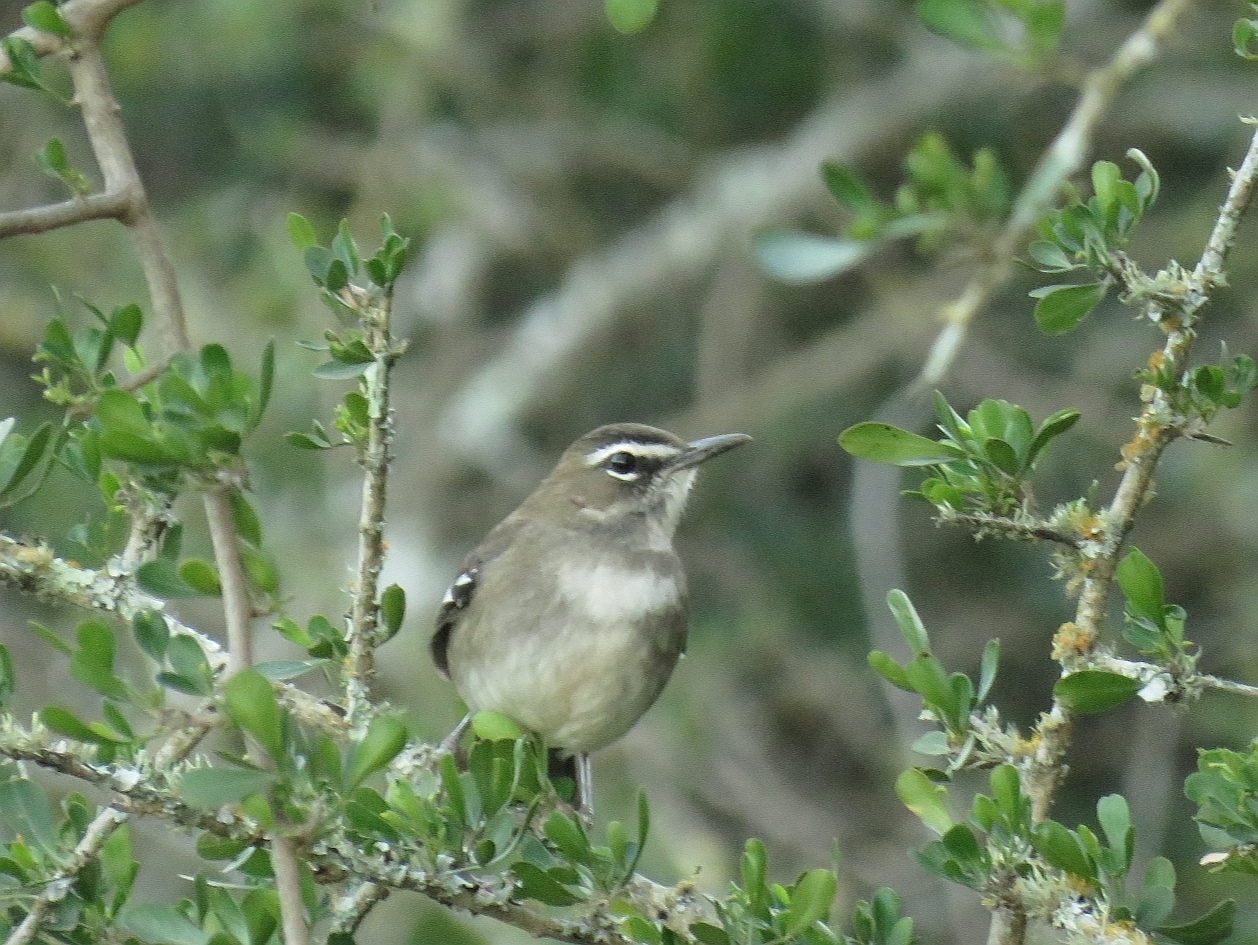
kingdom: Animalia
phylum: Chordata
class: Aves
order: Passeriformes
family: Muscicapidae
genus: Erythropygia
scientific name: Erythropygia signata
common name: Brown scrub robin
